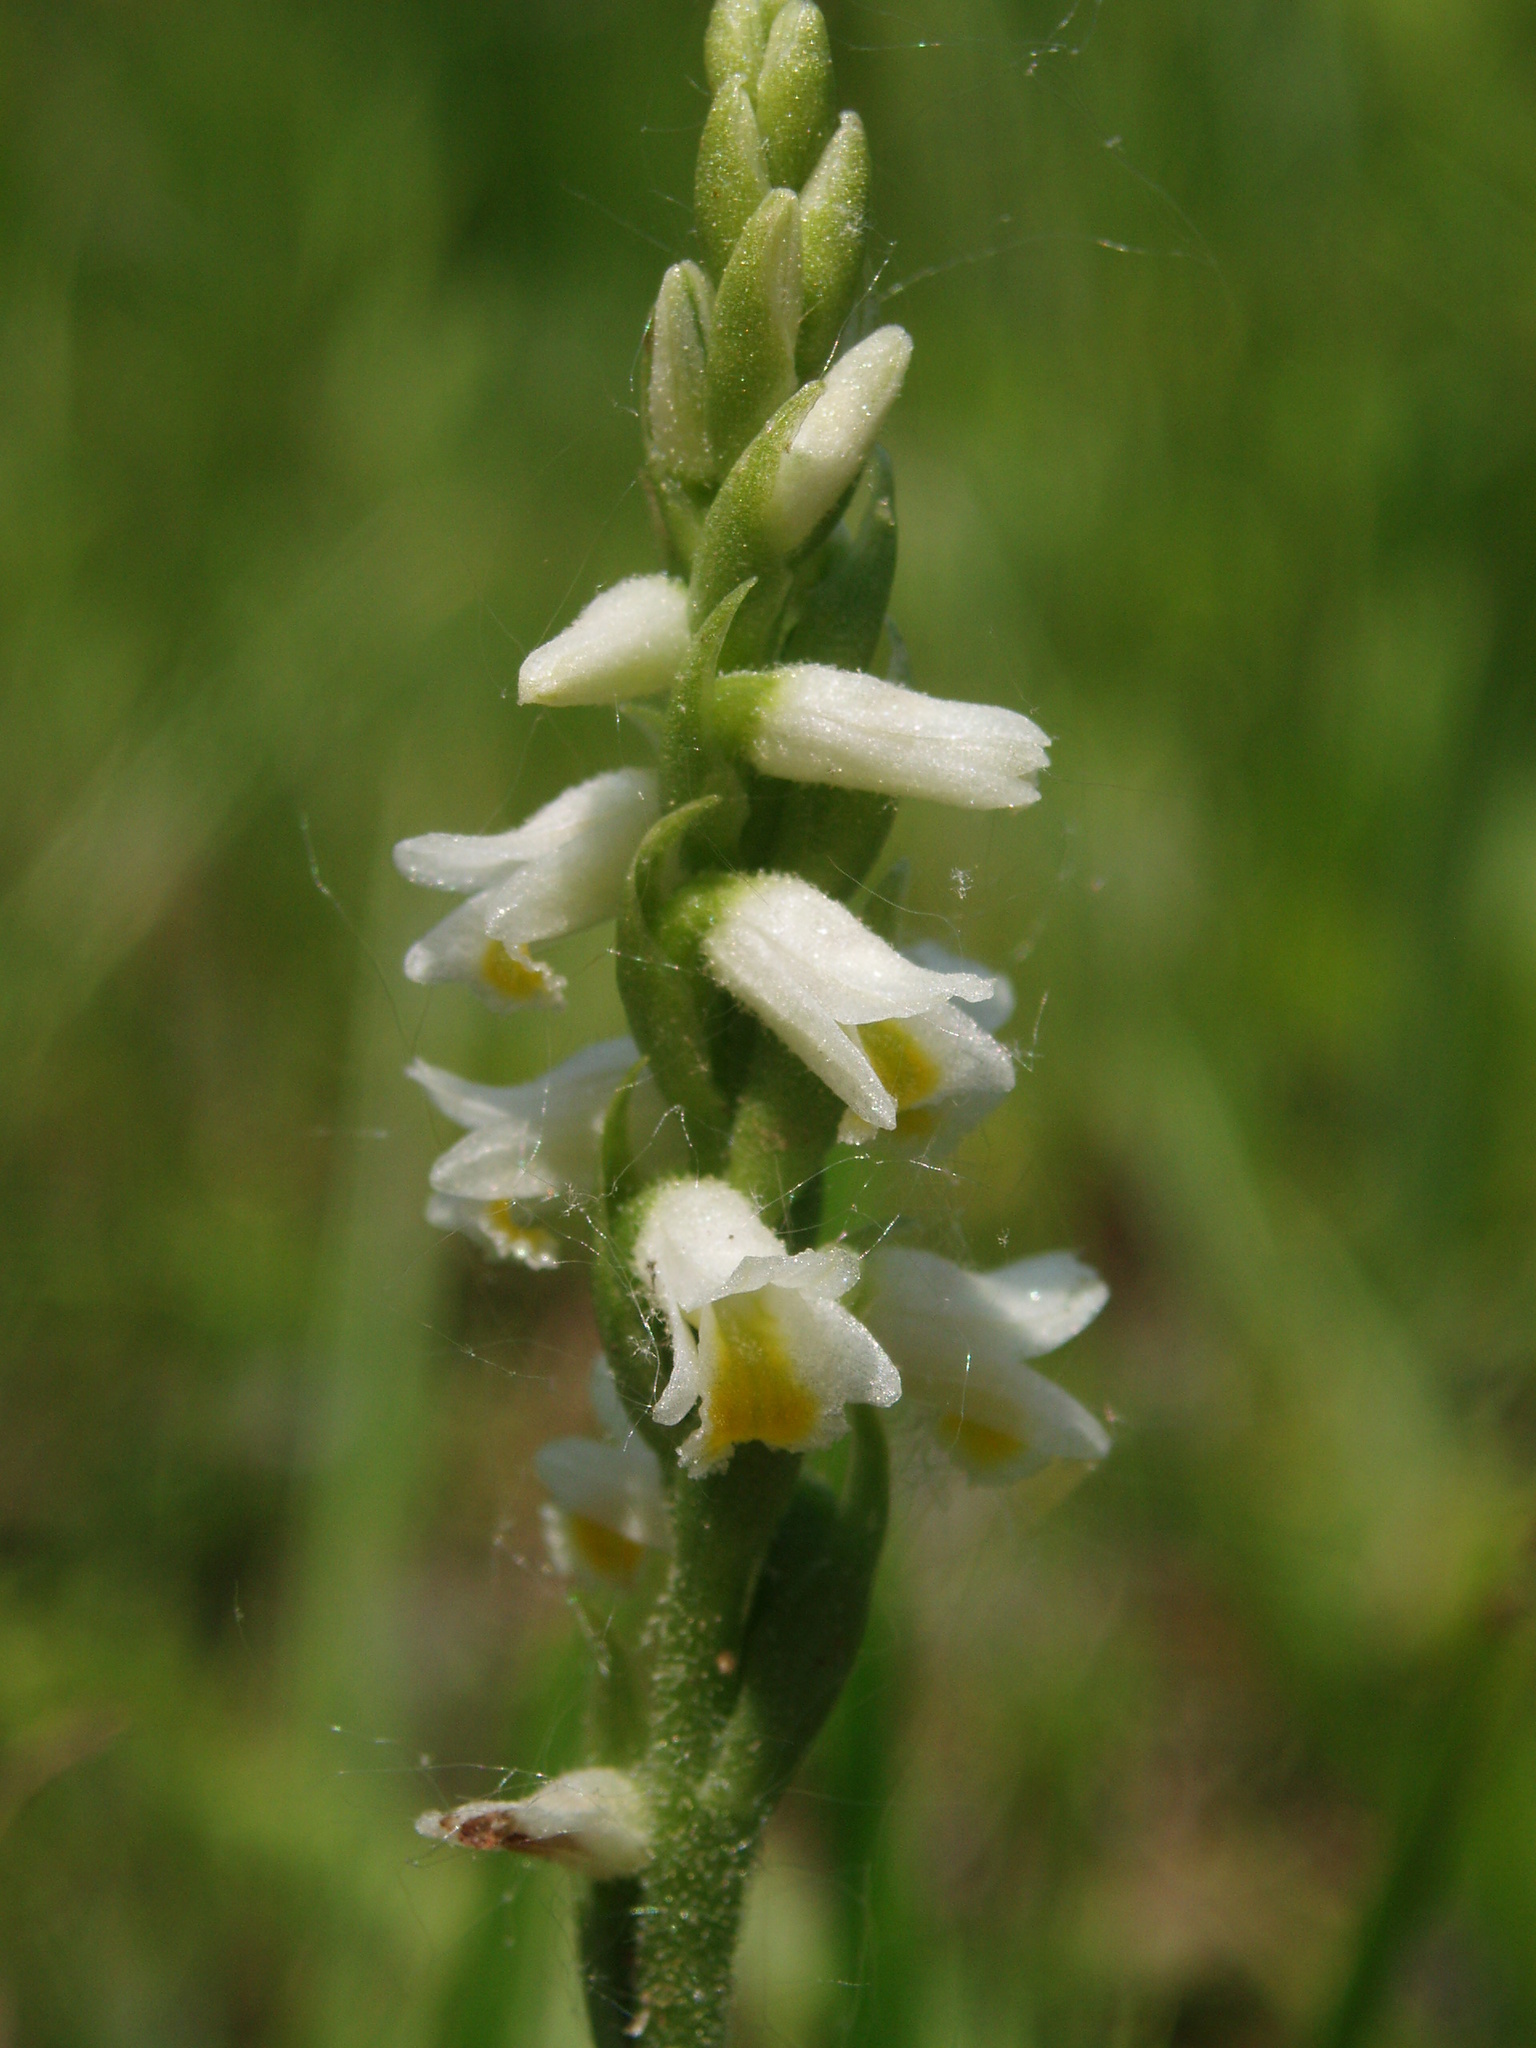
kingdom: Plantae
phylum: Tracheophyta
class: Liliopsida
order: Asparagales
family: Orchidaceae
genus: Spiranthes
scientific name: Spiranthes lucida
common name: Broad-leaved ladies'-tresses
